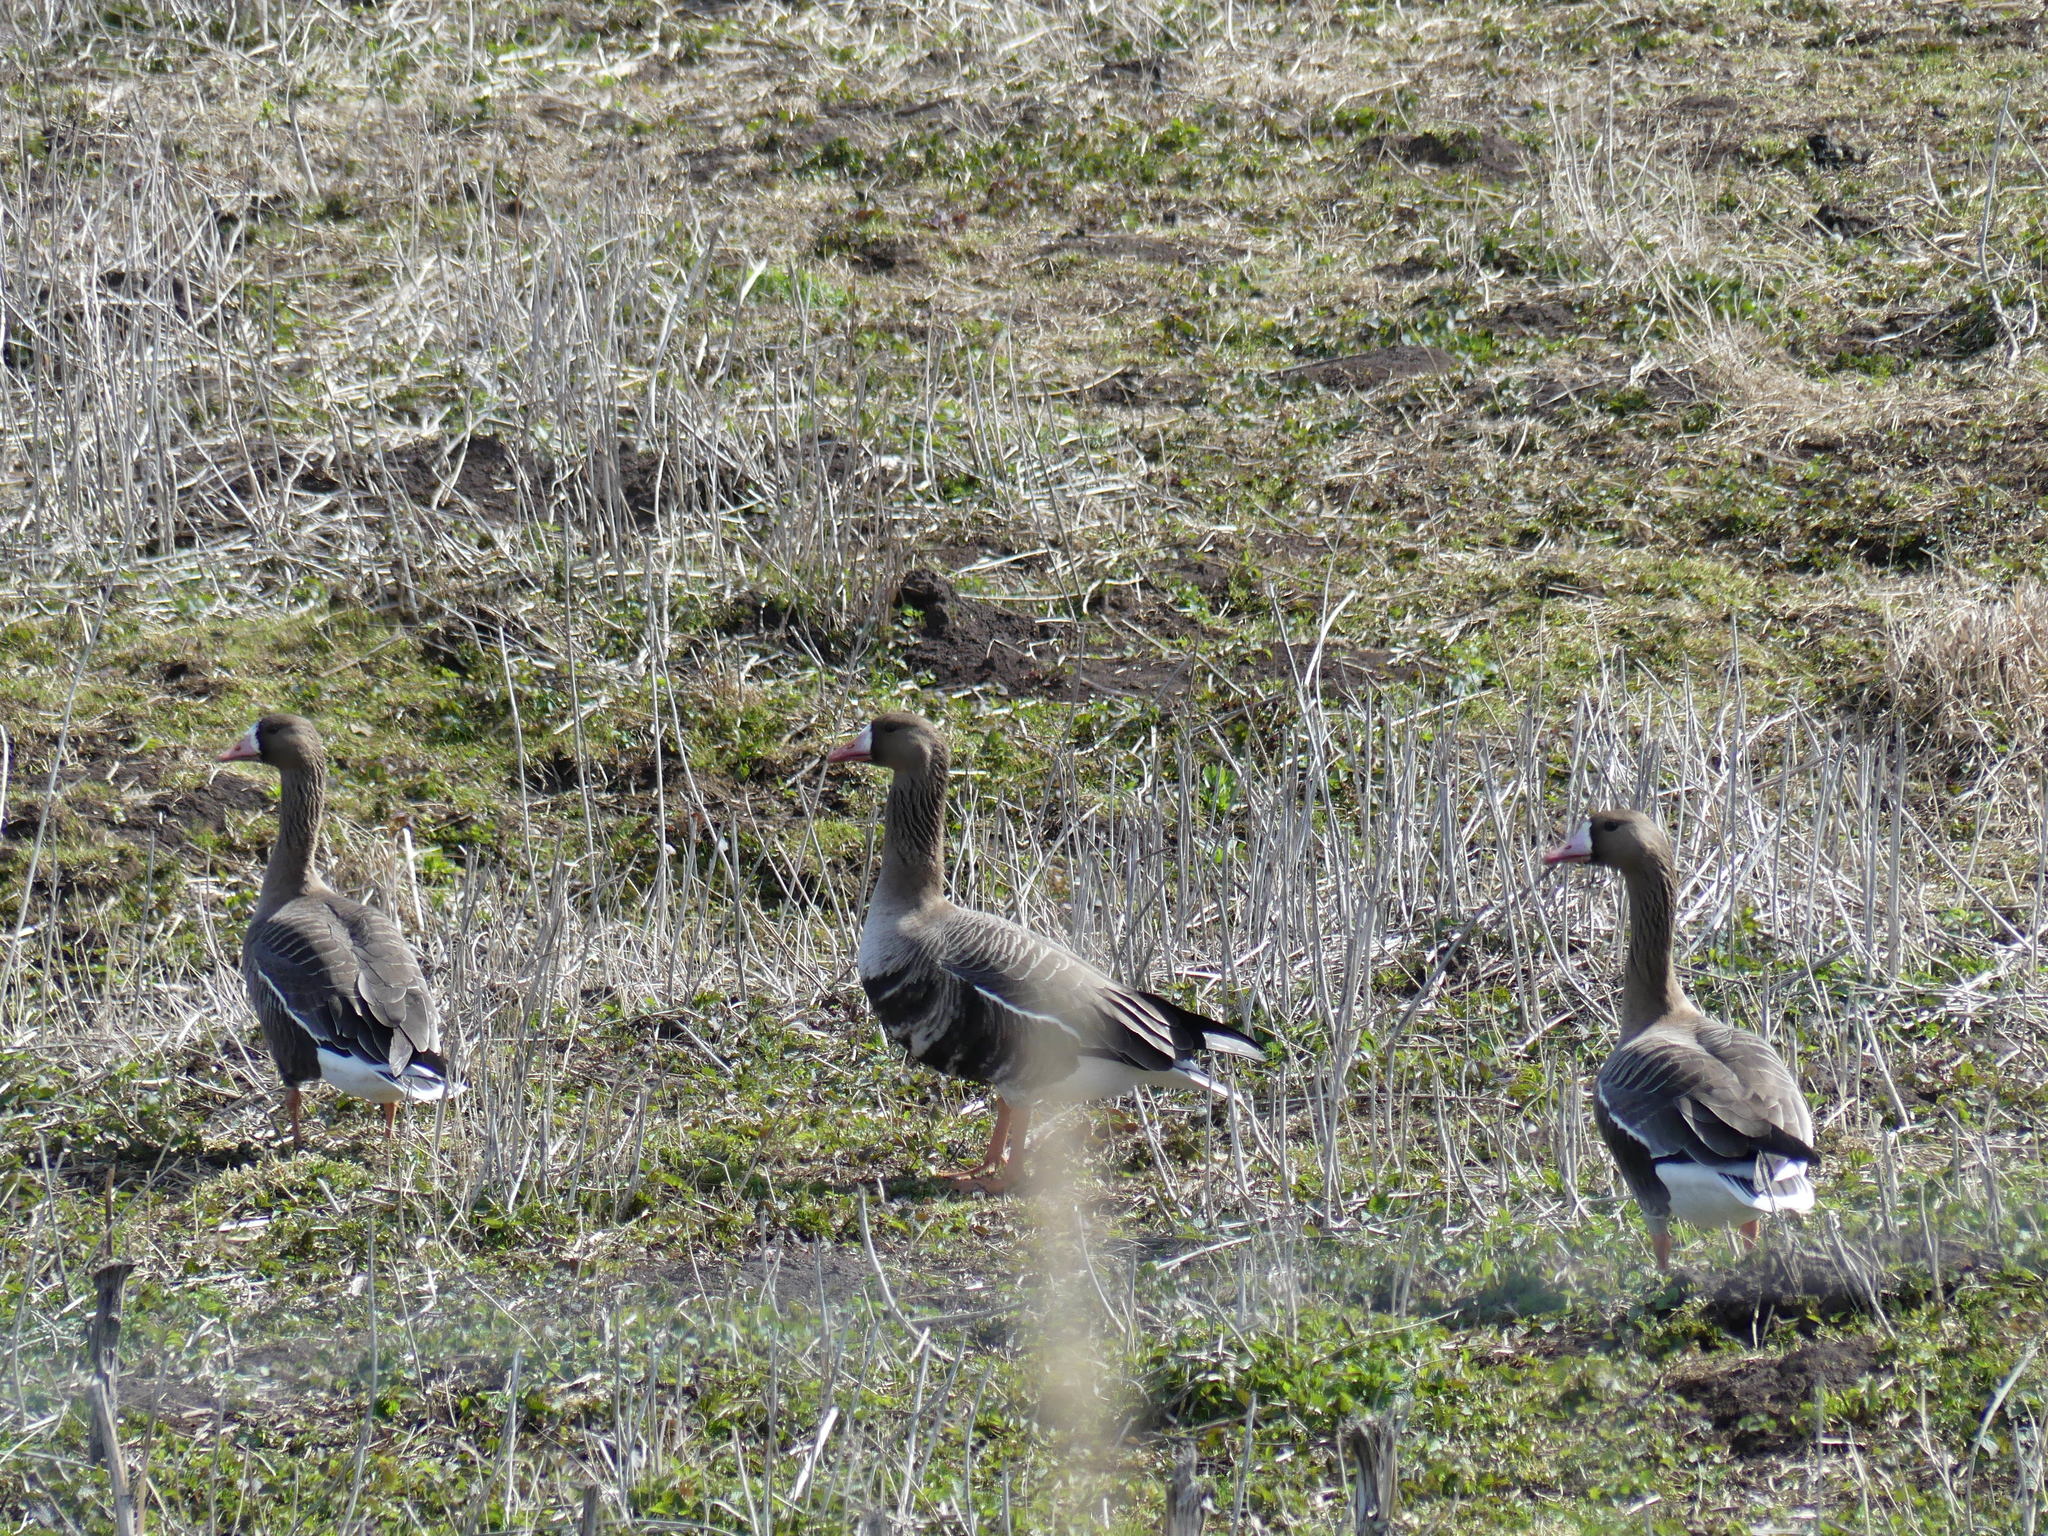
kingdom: Animalia
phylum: Chordata
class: Aves
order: Anseriformes
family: Anatidae
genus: Anser
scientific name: Anser albifrons
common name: Greater white-fronted goose
